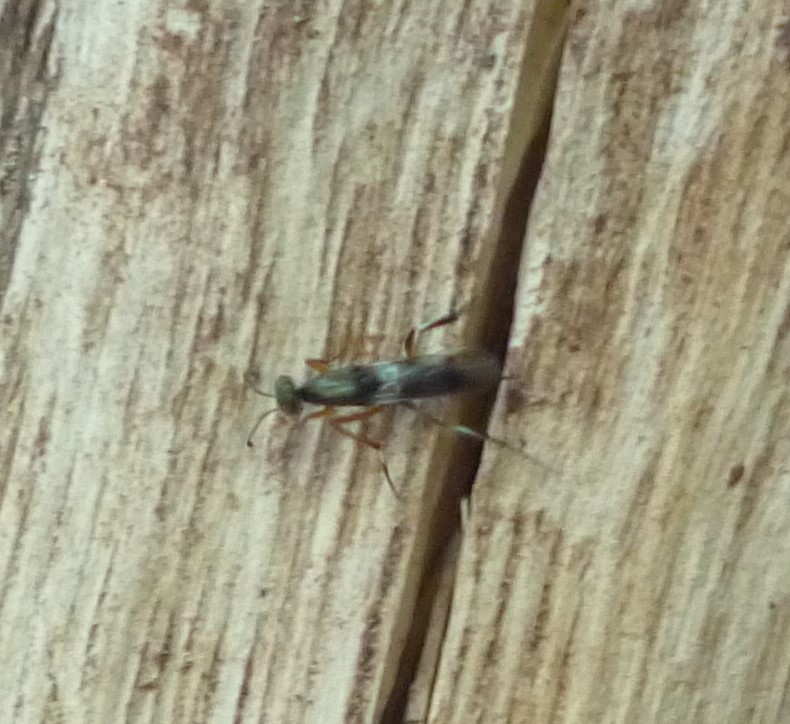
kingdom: Animalia
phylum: Arthropoda
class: Insecta
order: Hymenoptera
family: Eupelmidae
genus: Metapelma
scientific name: Metapelma spectabile
